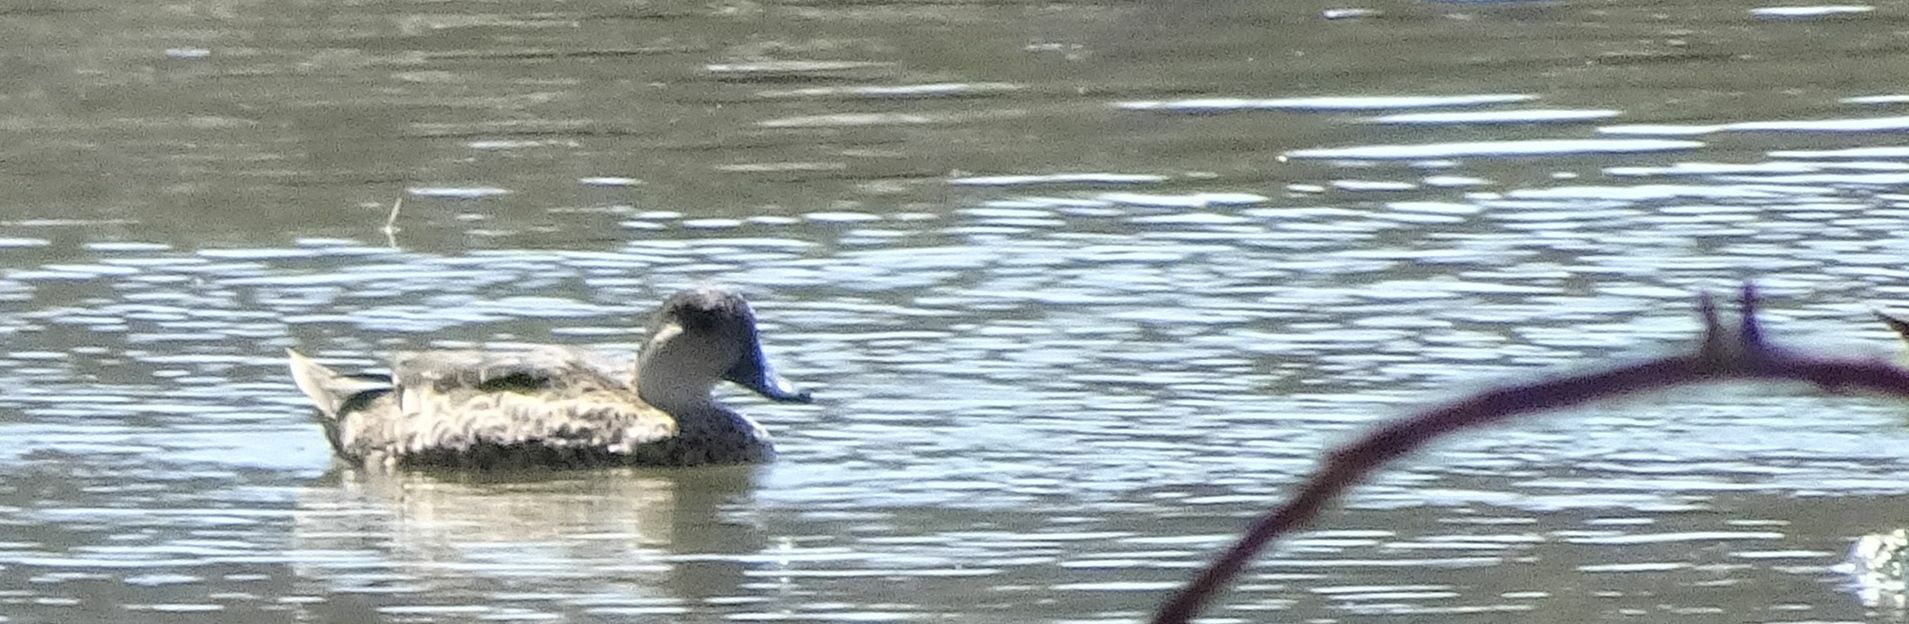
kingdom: Animalia
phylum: Chordata
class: Aves
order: Anseriformes
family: Anatidae
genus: Anas
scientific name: Anas gracilis
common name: Grey teal
